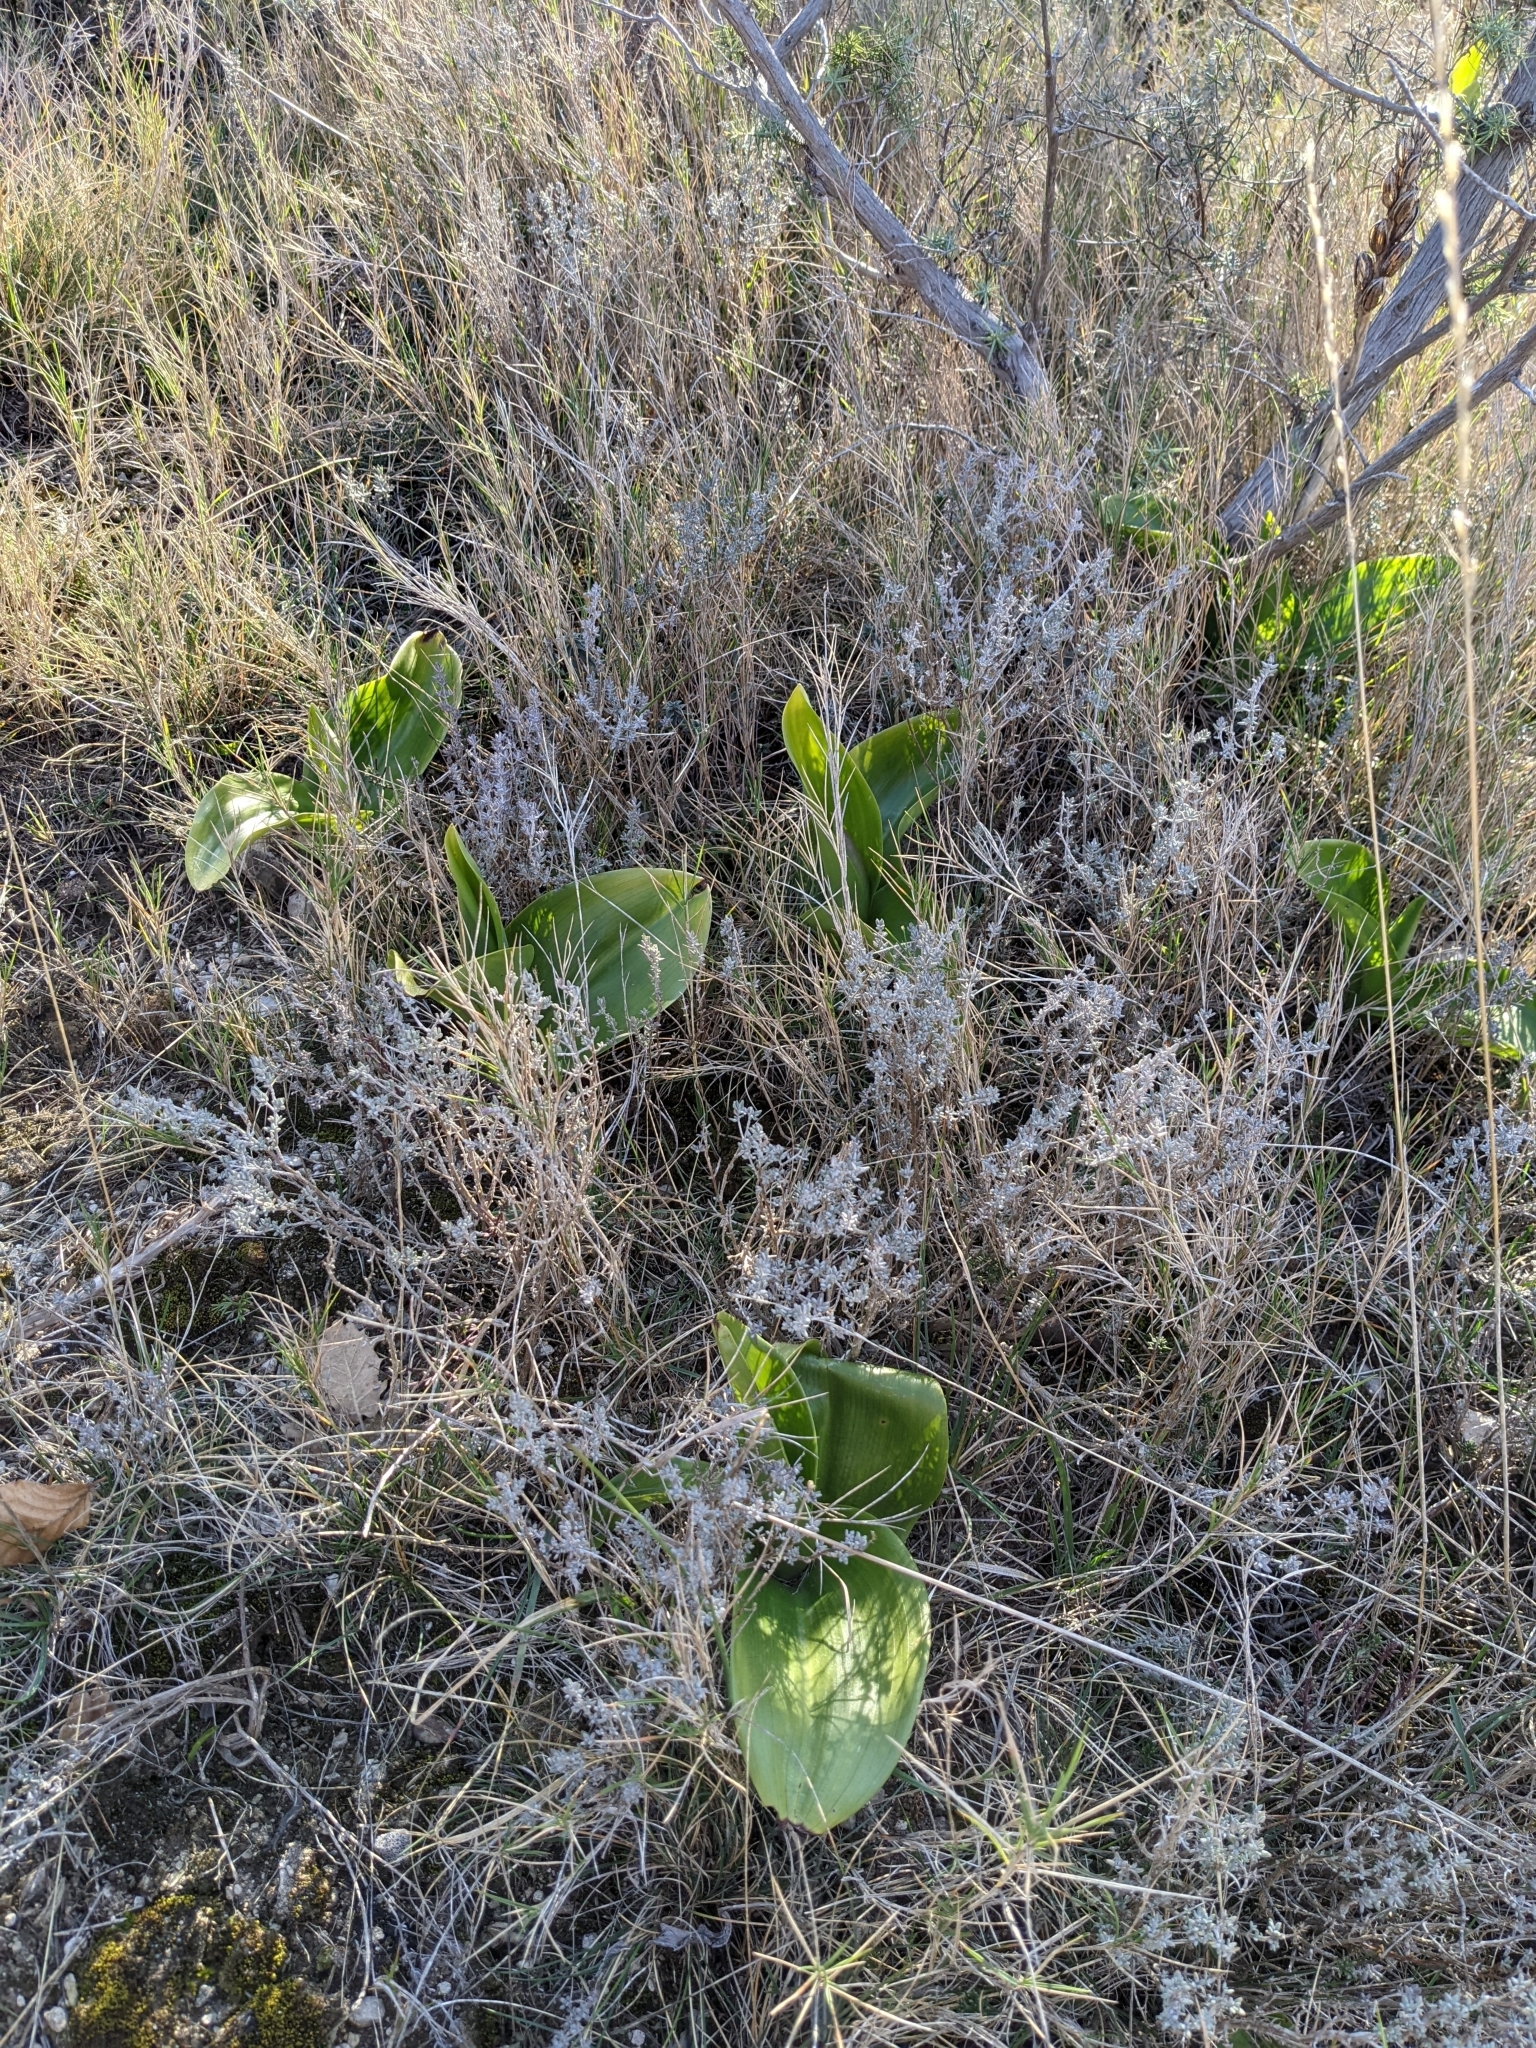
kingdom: Plantae
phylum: Tracheophyta
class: Liliopsida
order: Asparagales
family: Orchidaceae
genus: Himantoglossum
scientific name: Himantoglossum robertianum
